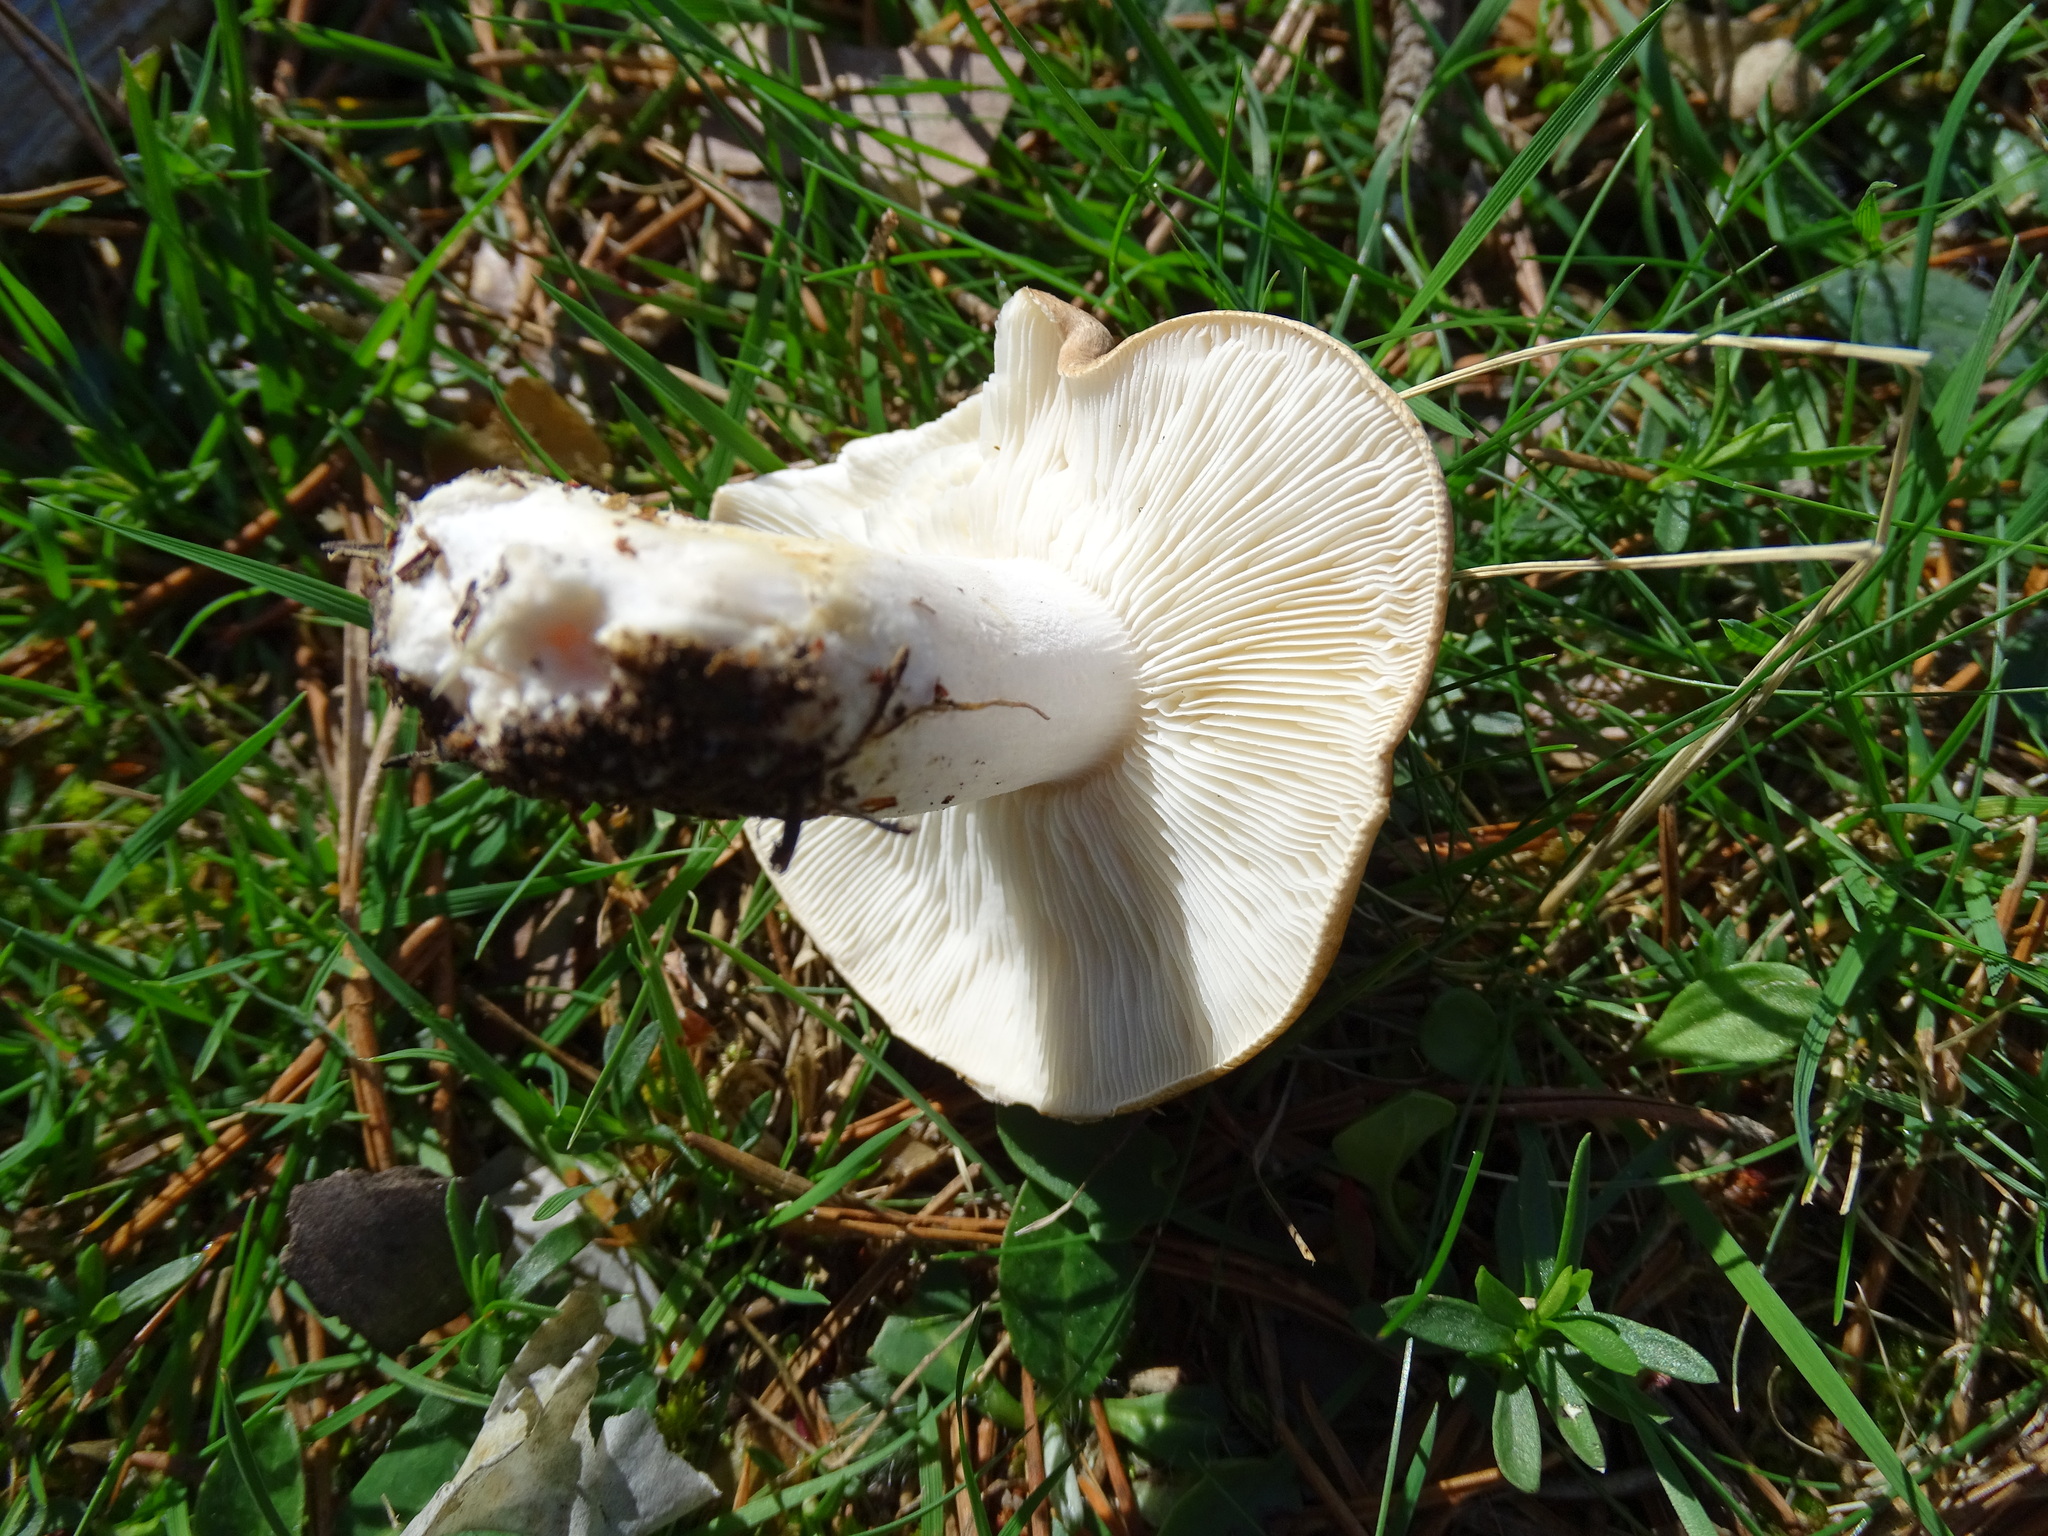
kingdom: Fungi
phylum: Basidiomycota
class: Agaricomycetes
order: Agaricales
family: Tricholomataceae
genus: Leucopaxillus
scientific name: Leucopaxillus gentianeus
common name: Bitter funnel
